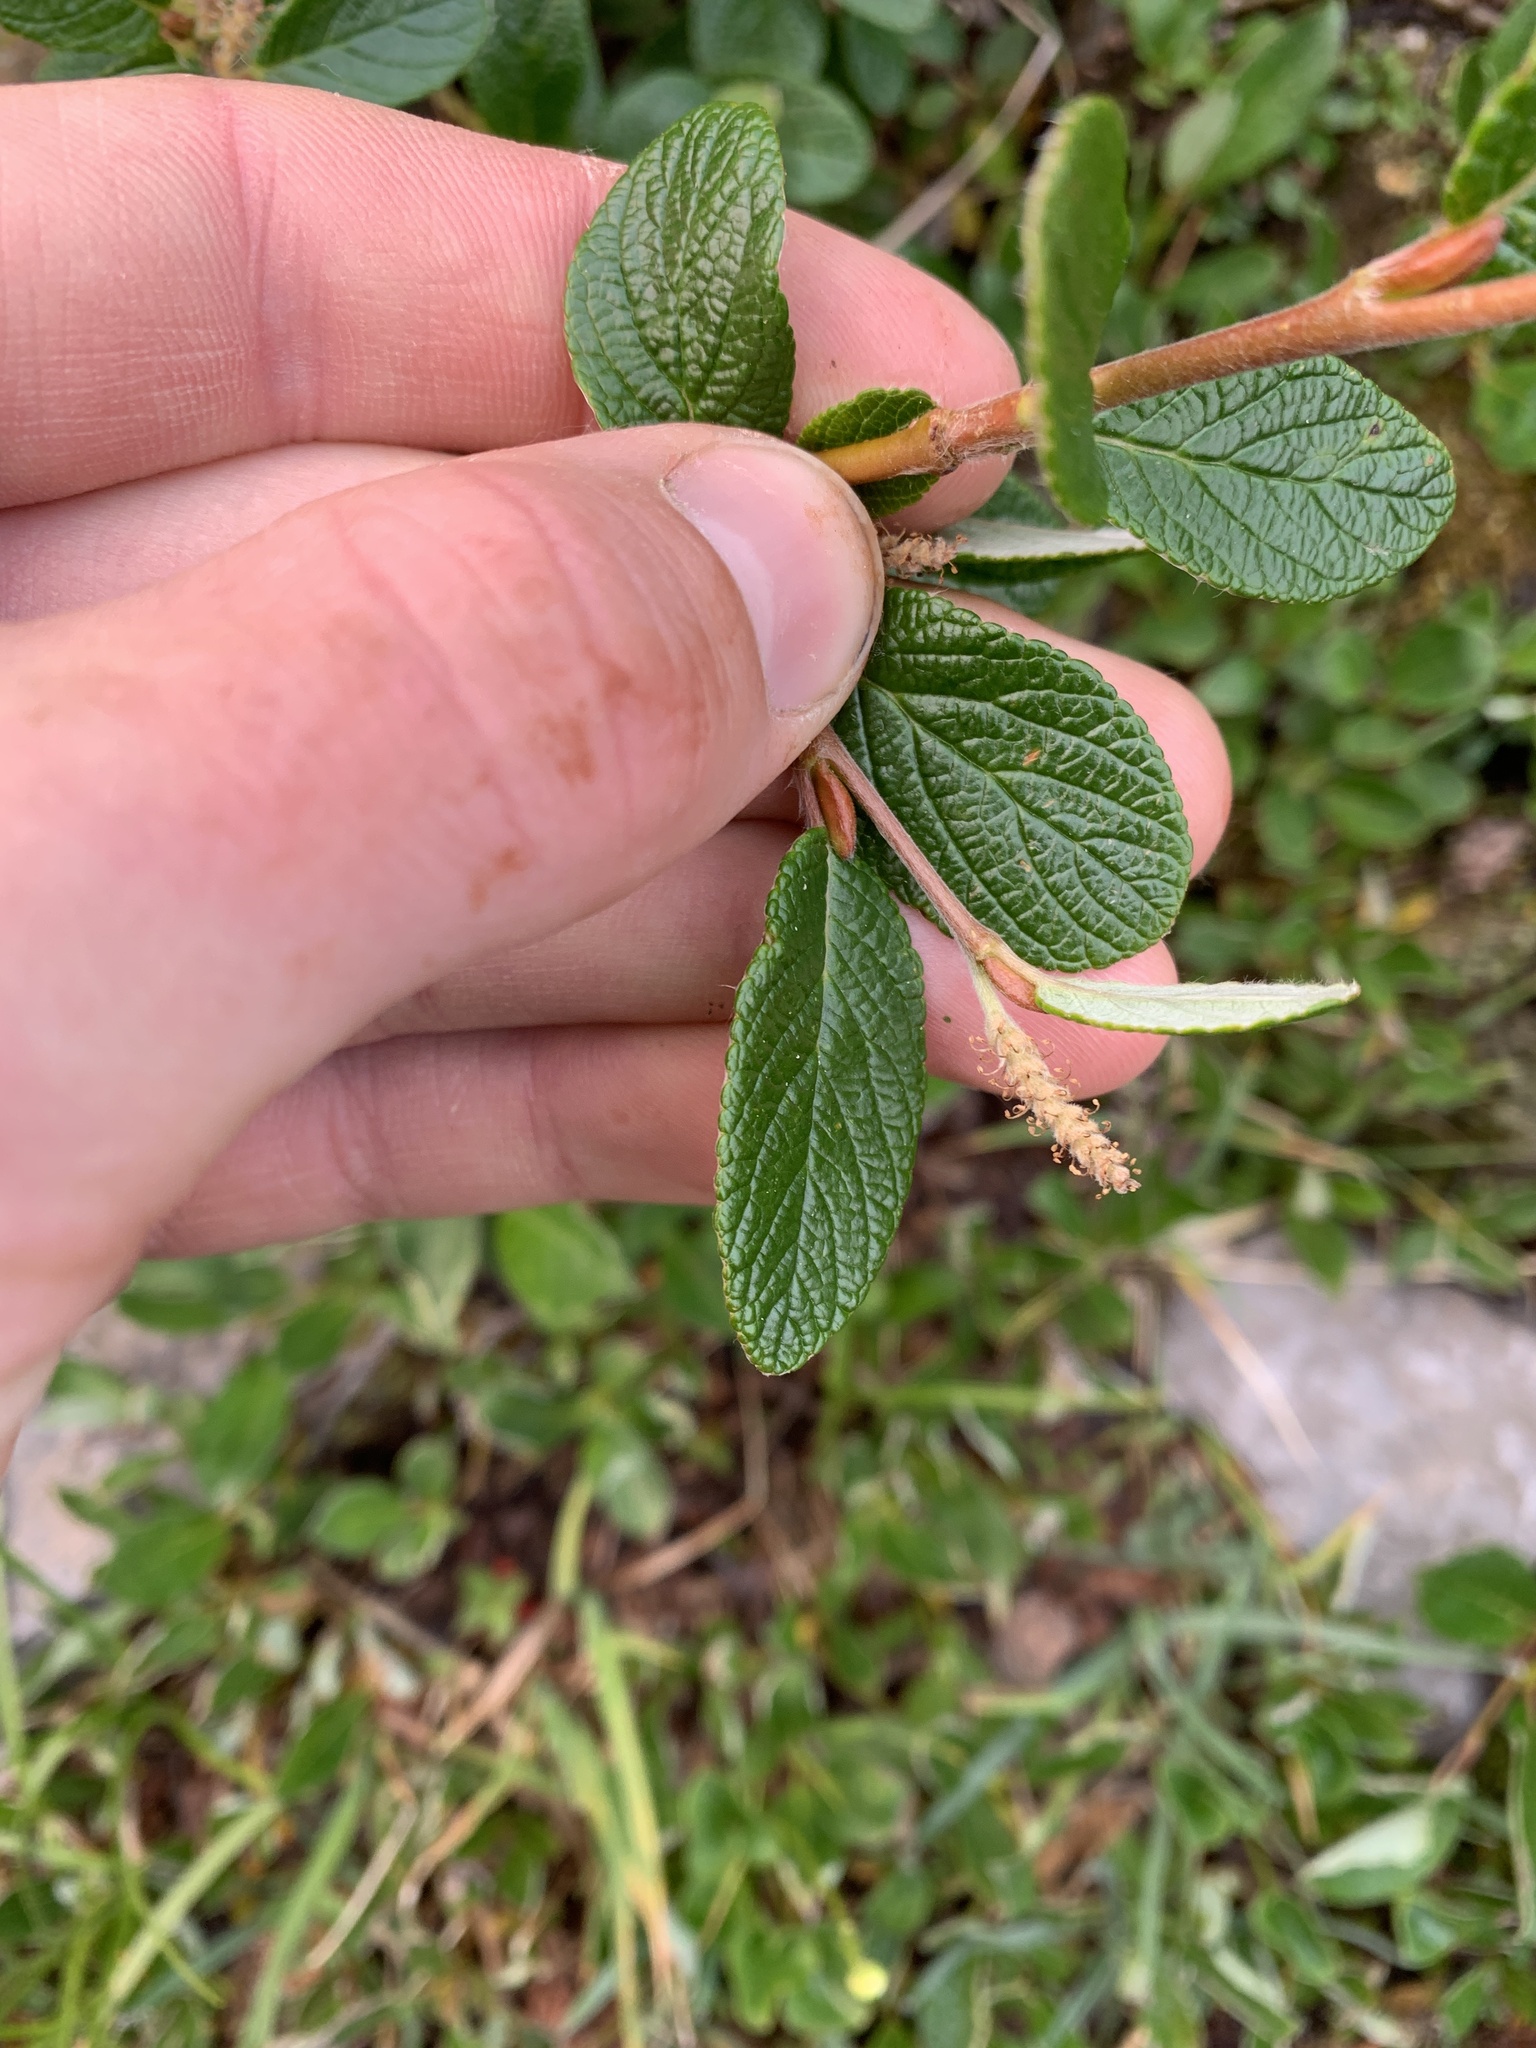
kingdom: Plantae
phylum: Tracheophyta
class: Magnoliopsida
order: Malpighiales
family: Salicaceae
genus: Salix
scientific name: Salix vestita
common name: Hairy willow
